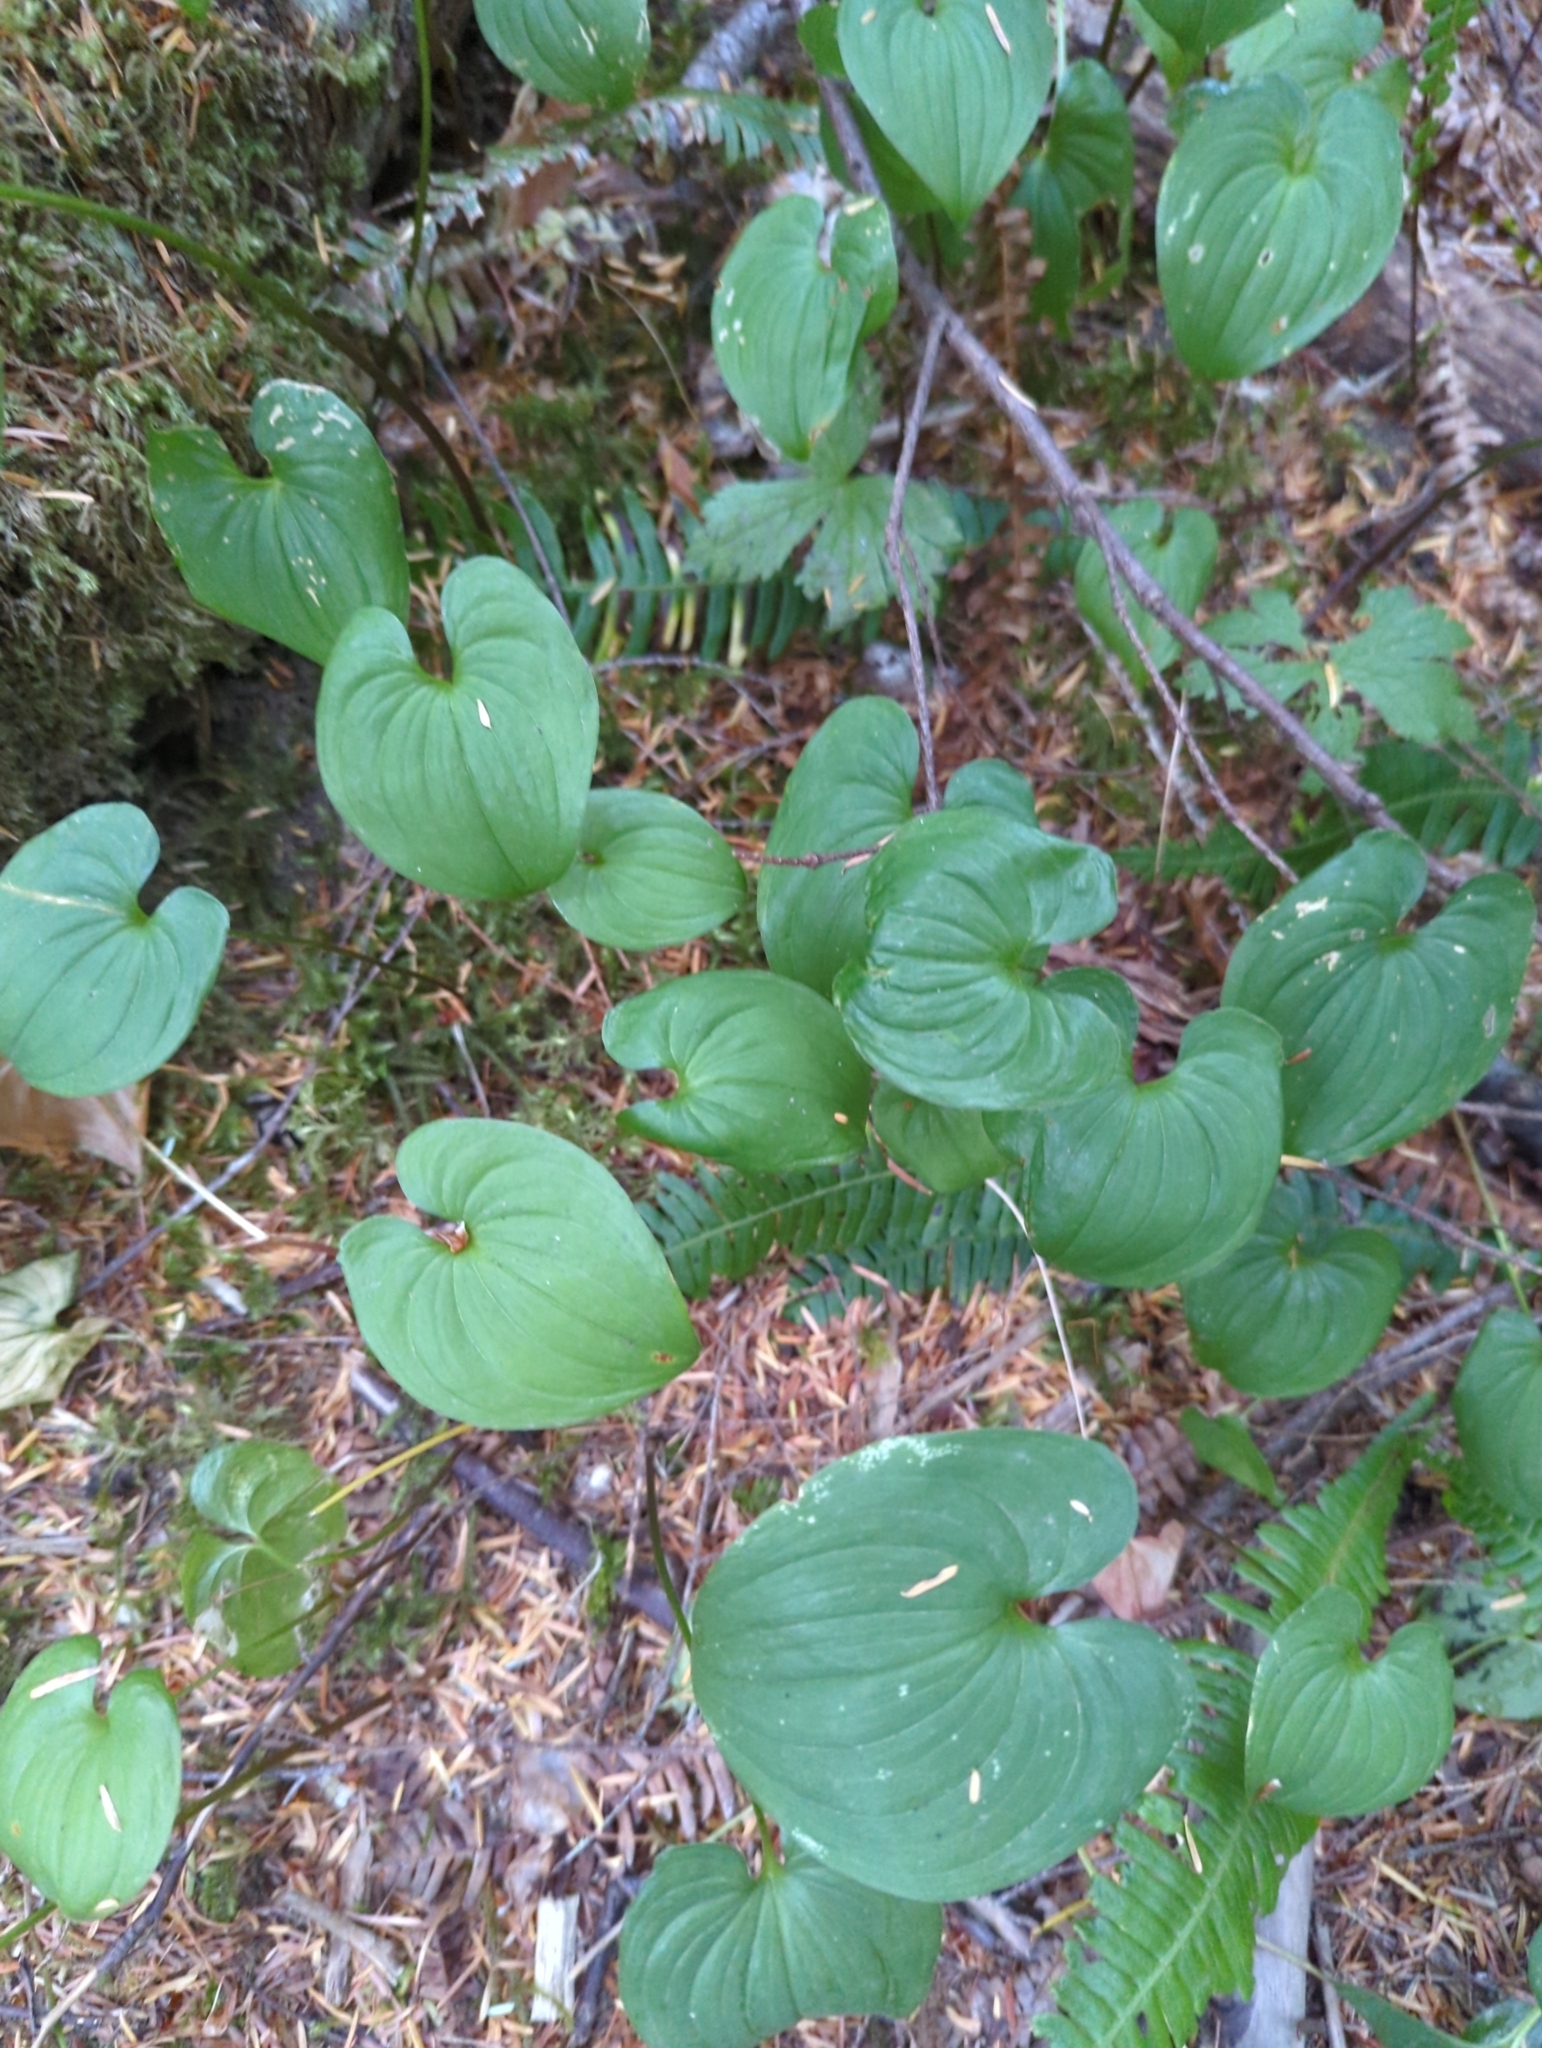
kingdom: Plantae
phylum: Tracheophyta
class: Liliopsida
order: Asparagales
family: Asparagaceae
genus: Maianthemum
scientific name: Maianthemum dilatatum
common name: False lily-of-the-valley
